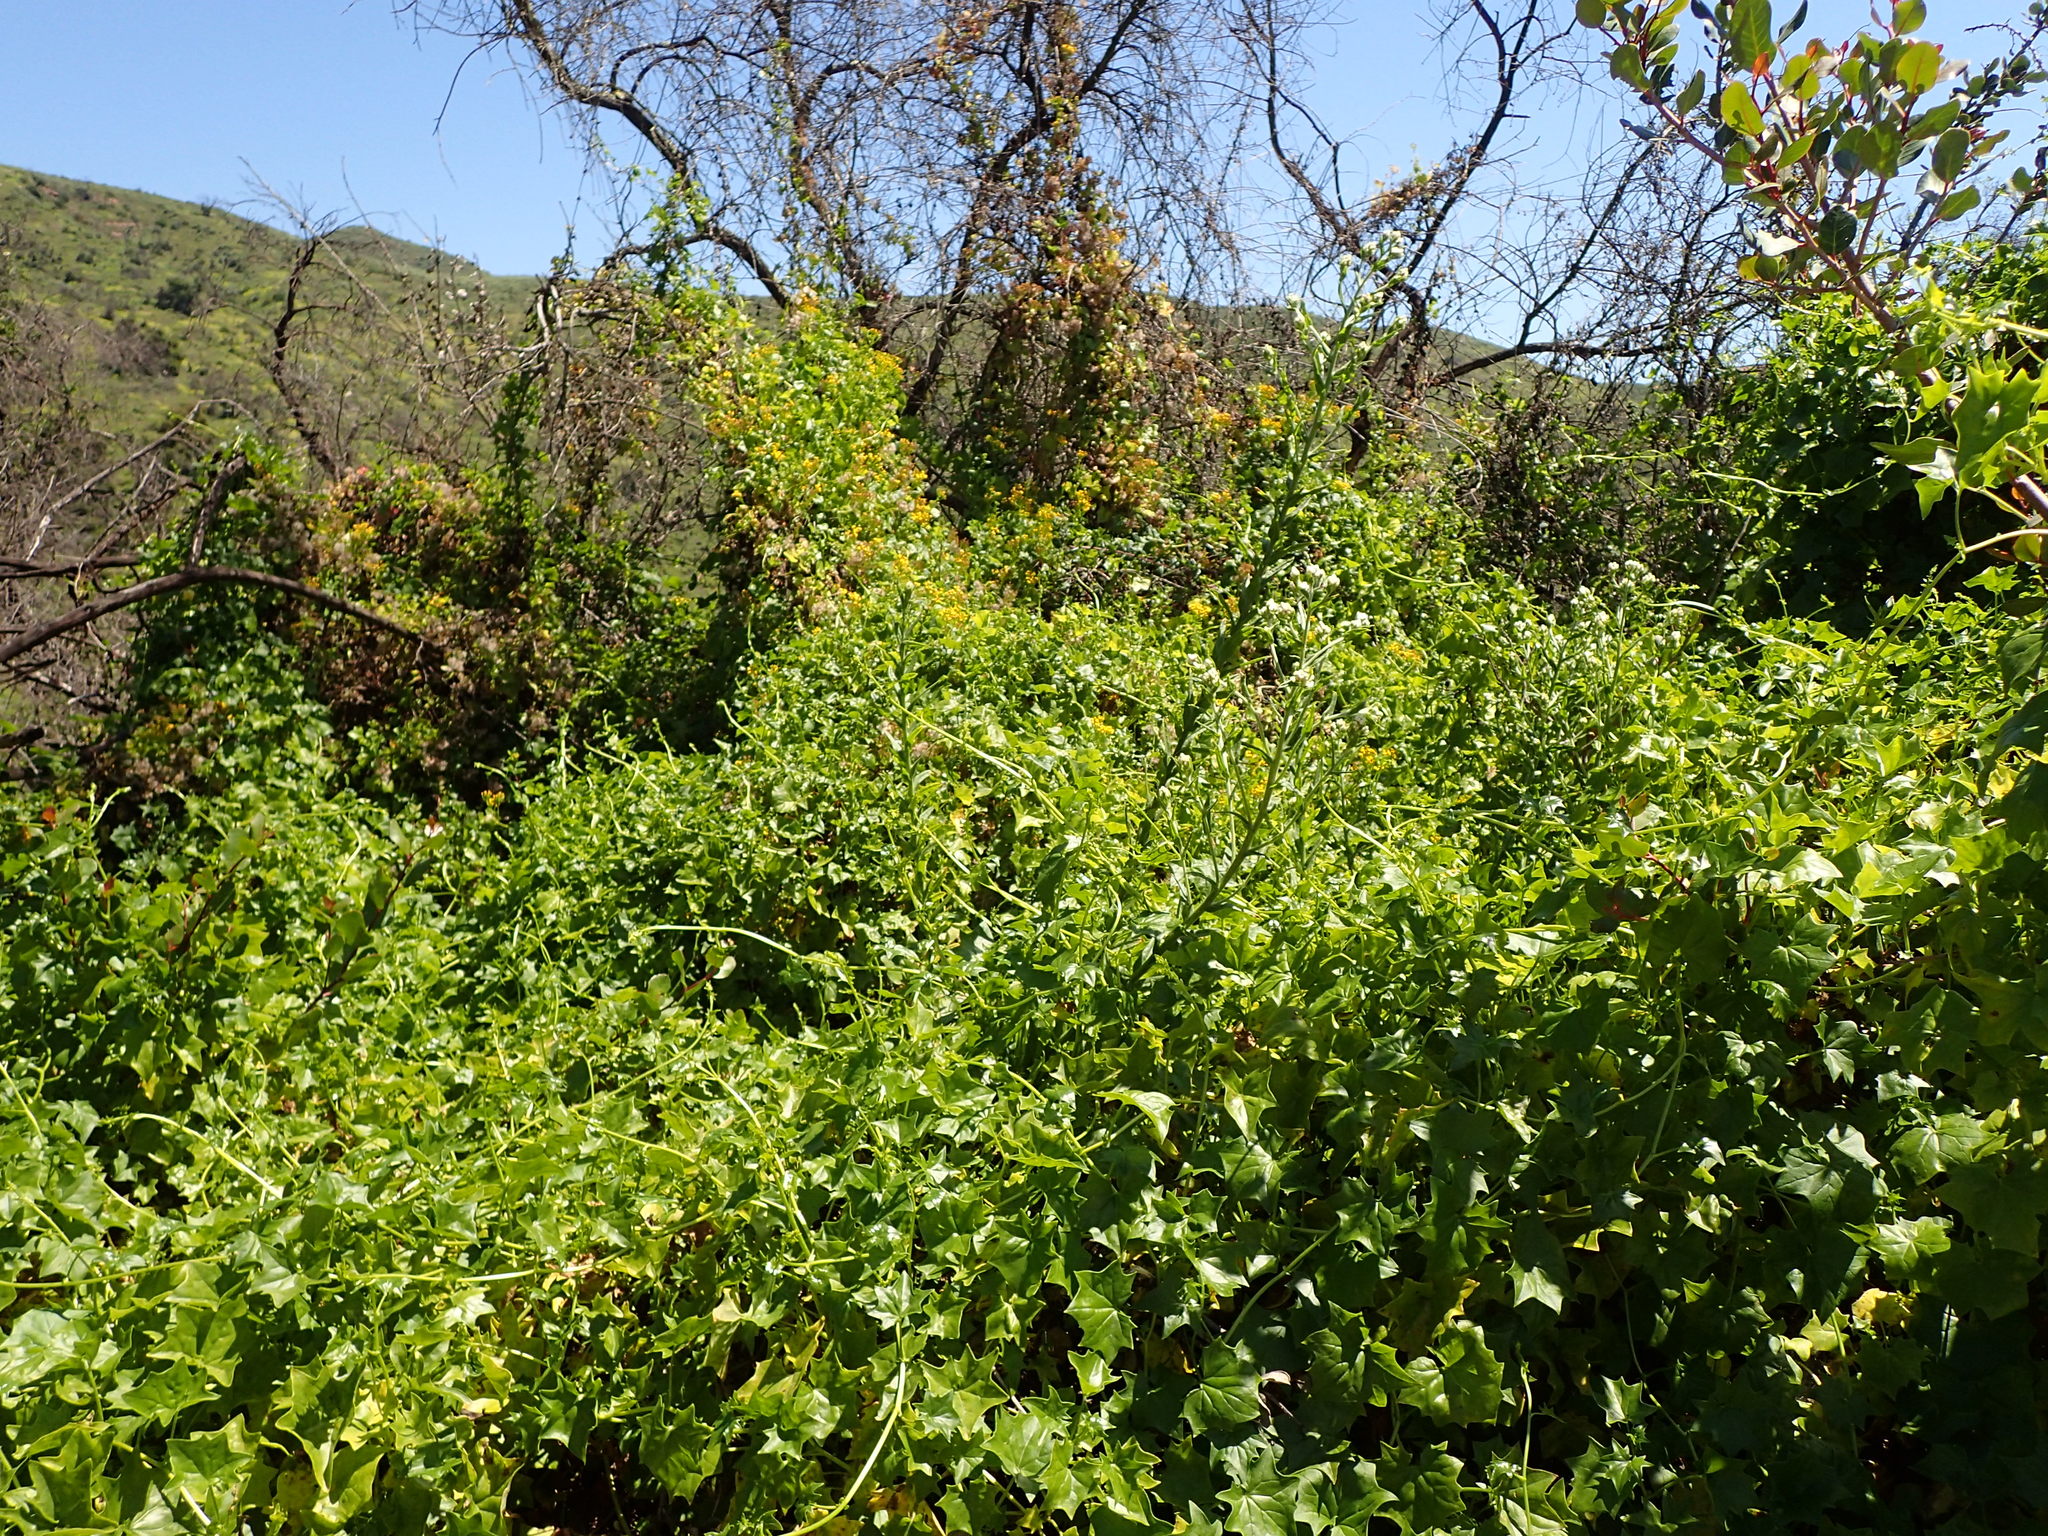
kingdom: Plantae
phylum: Tracheophyta
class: Magnoliopsida
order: Asterales
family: Asteraceae
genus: Delairea
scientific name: Delairea odorata
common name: Cape-ivy
